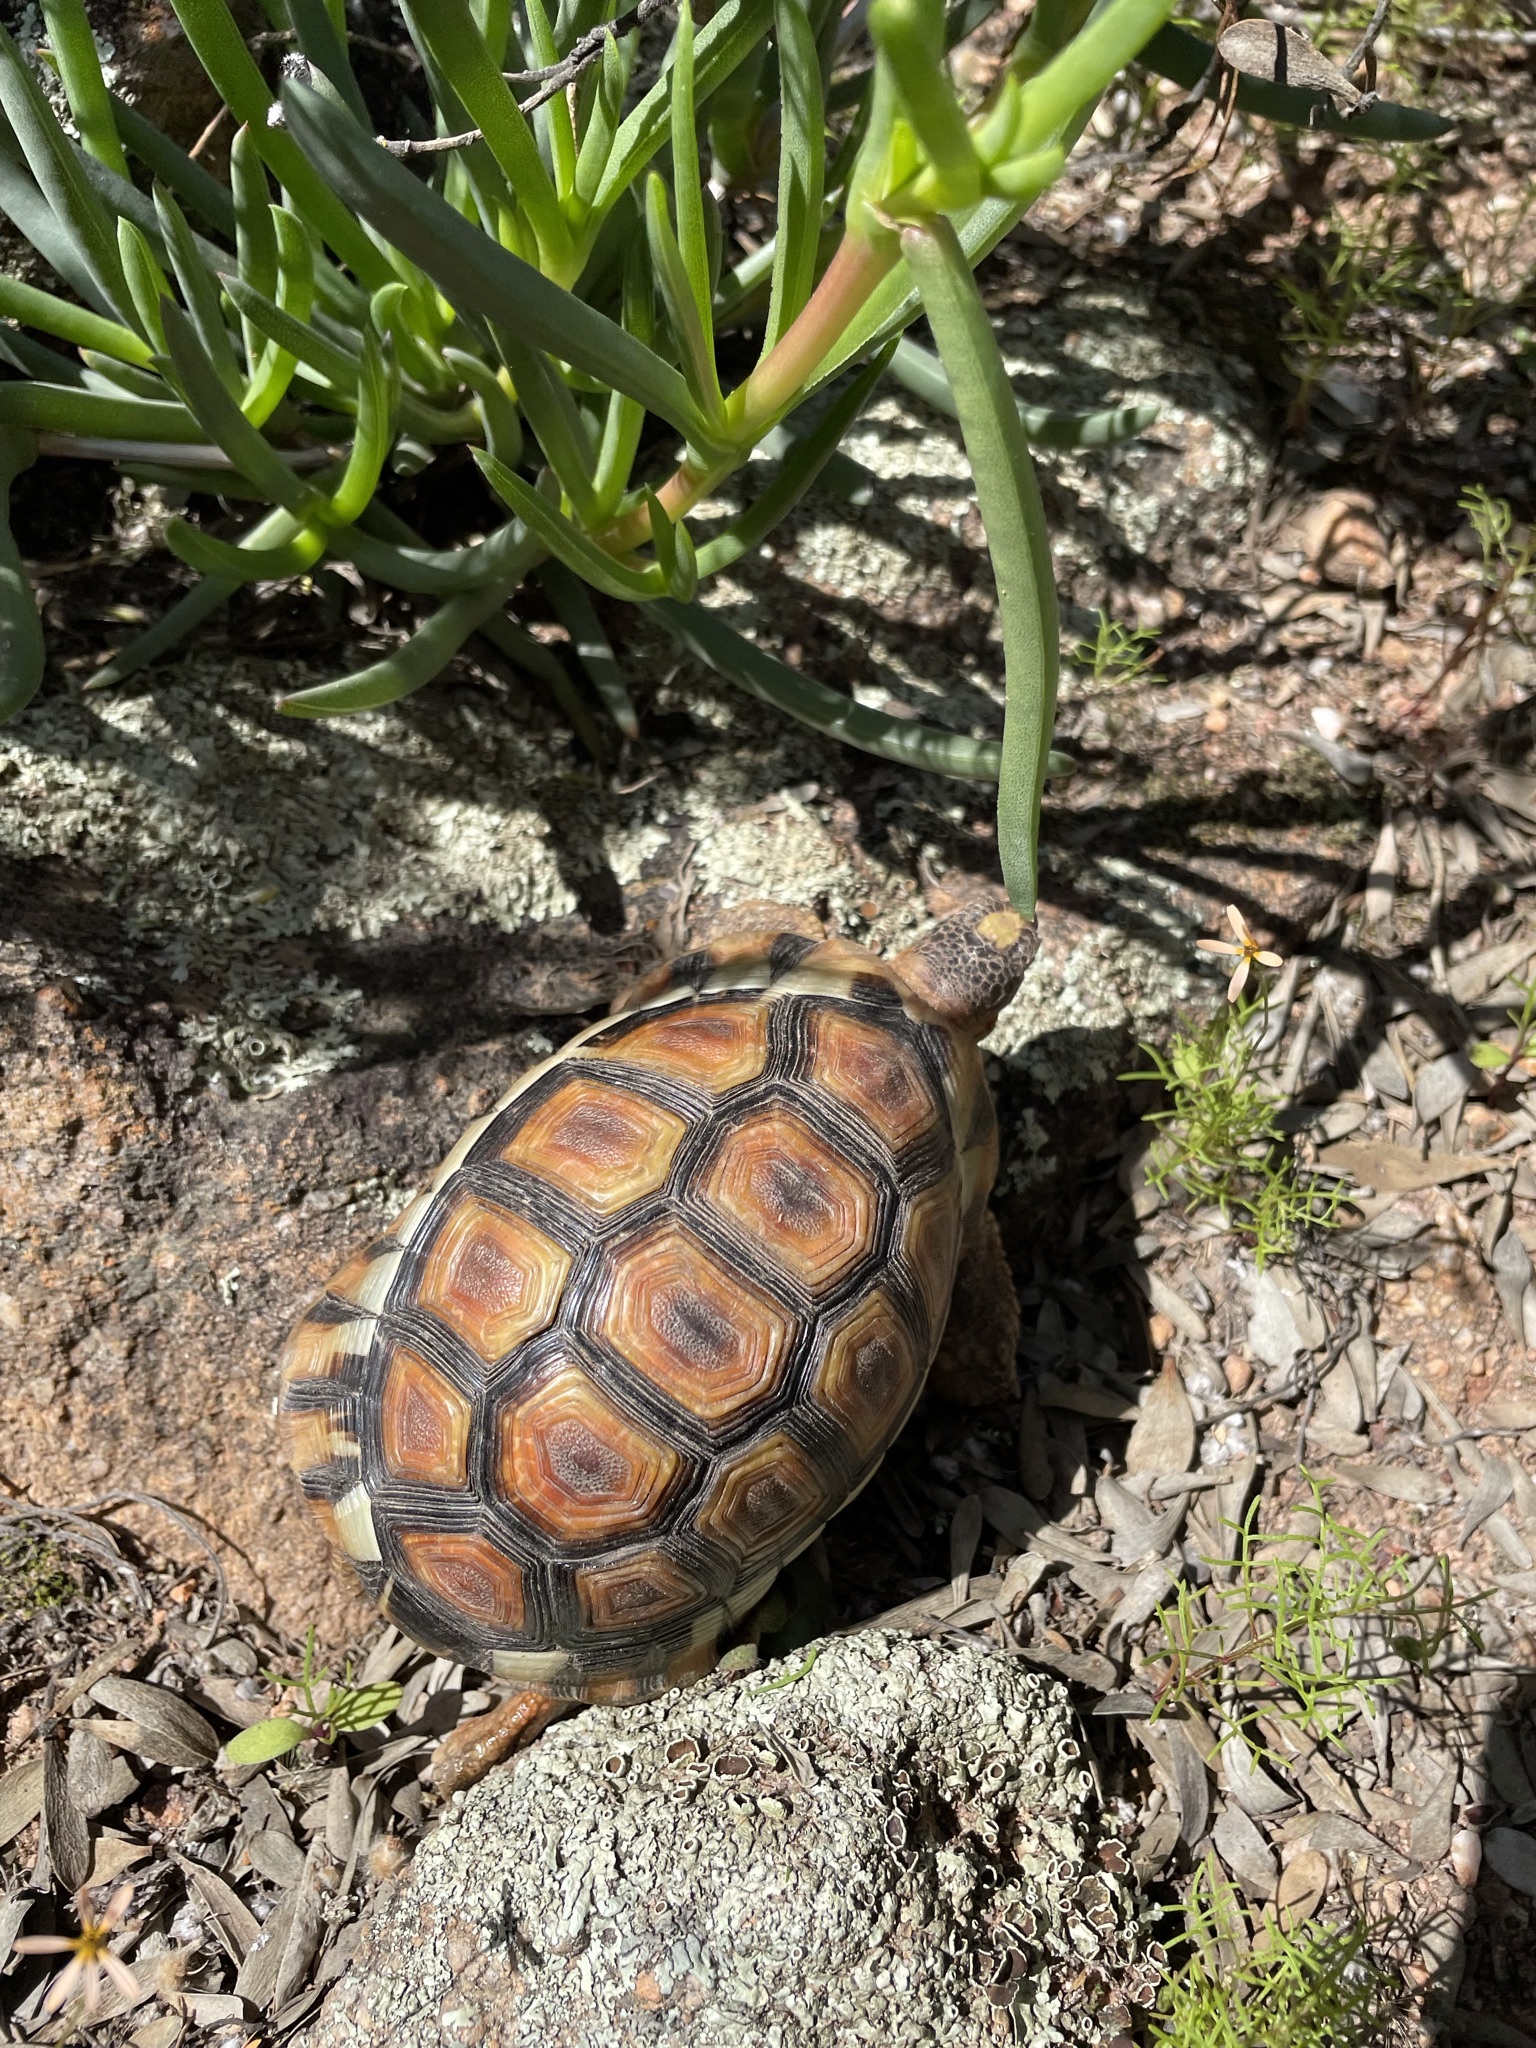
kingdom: Animalia
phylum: Chordata
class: Testudines
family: Testudinidae
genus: Chersina
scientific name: Chersina angulata
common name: South african bowsprit tortoise
